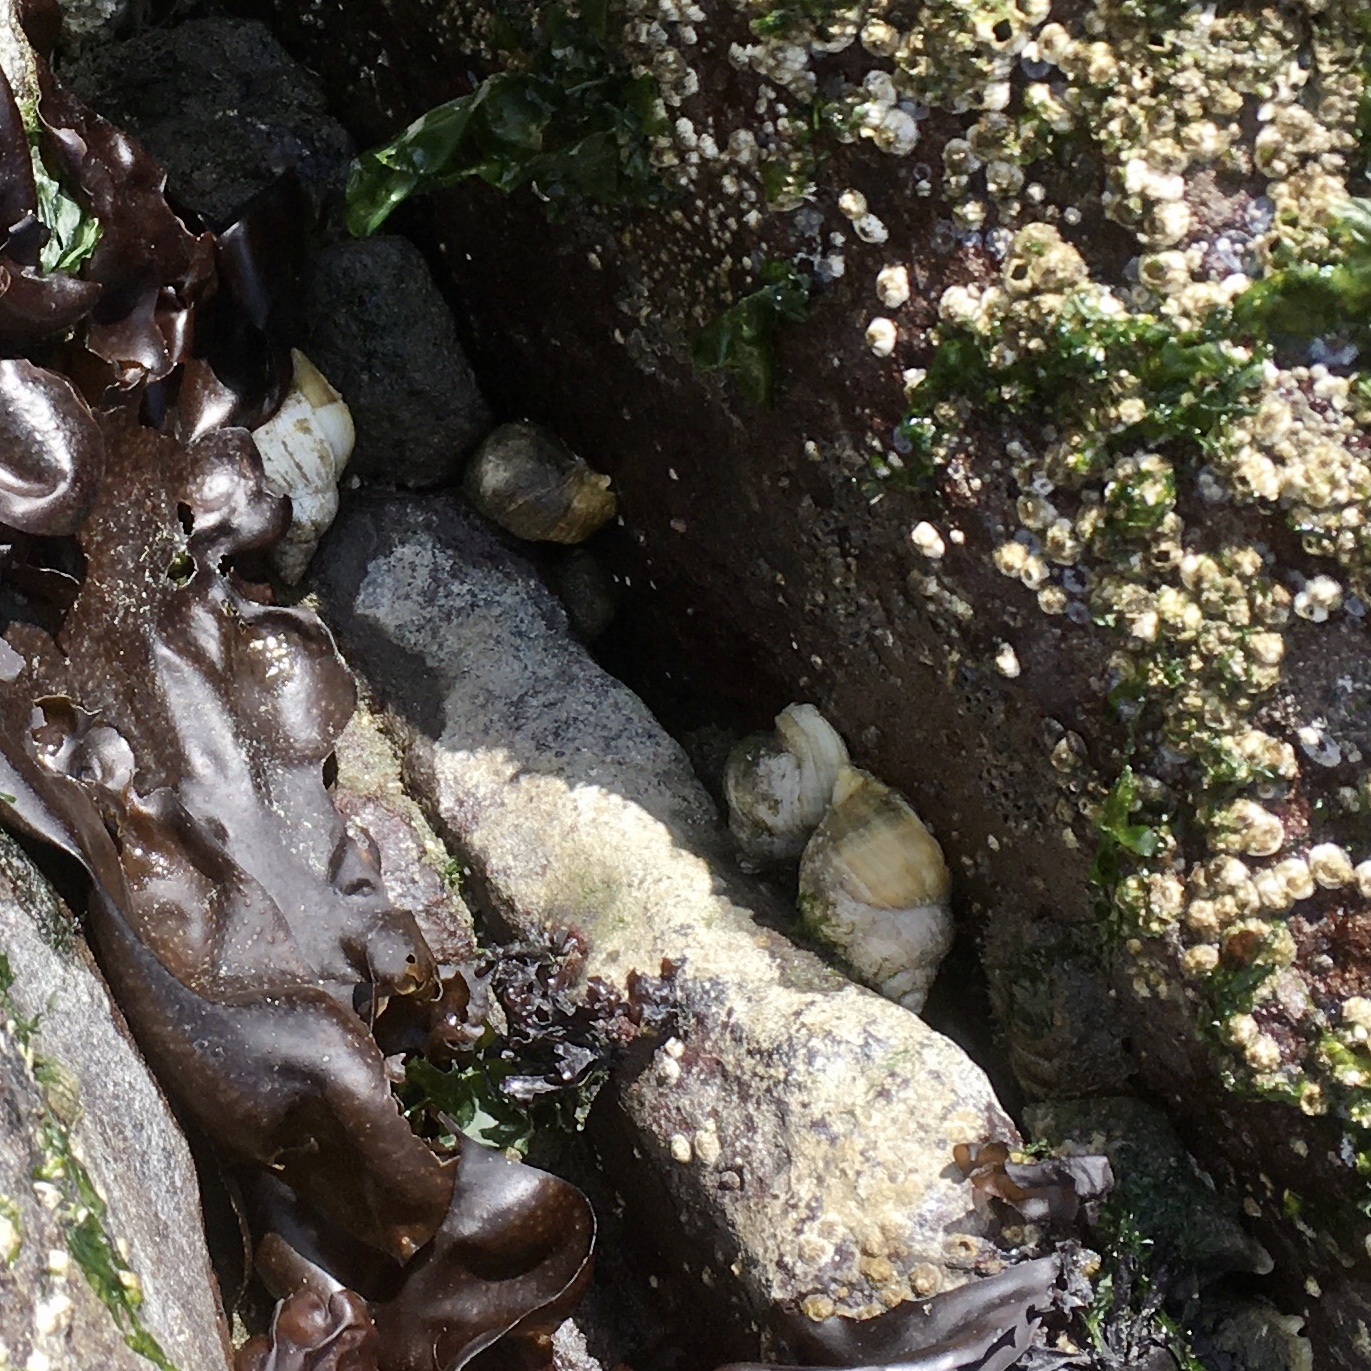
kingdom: Animalia
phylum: Mollusca
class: Gastropoda
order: Neogastropoda
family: Muricidae
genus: Nucella
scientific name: Nucella lamellosa
